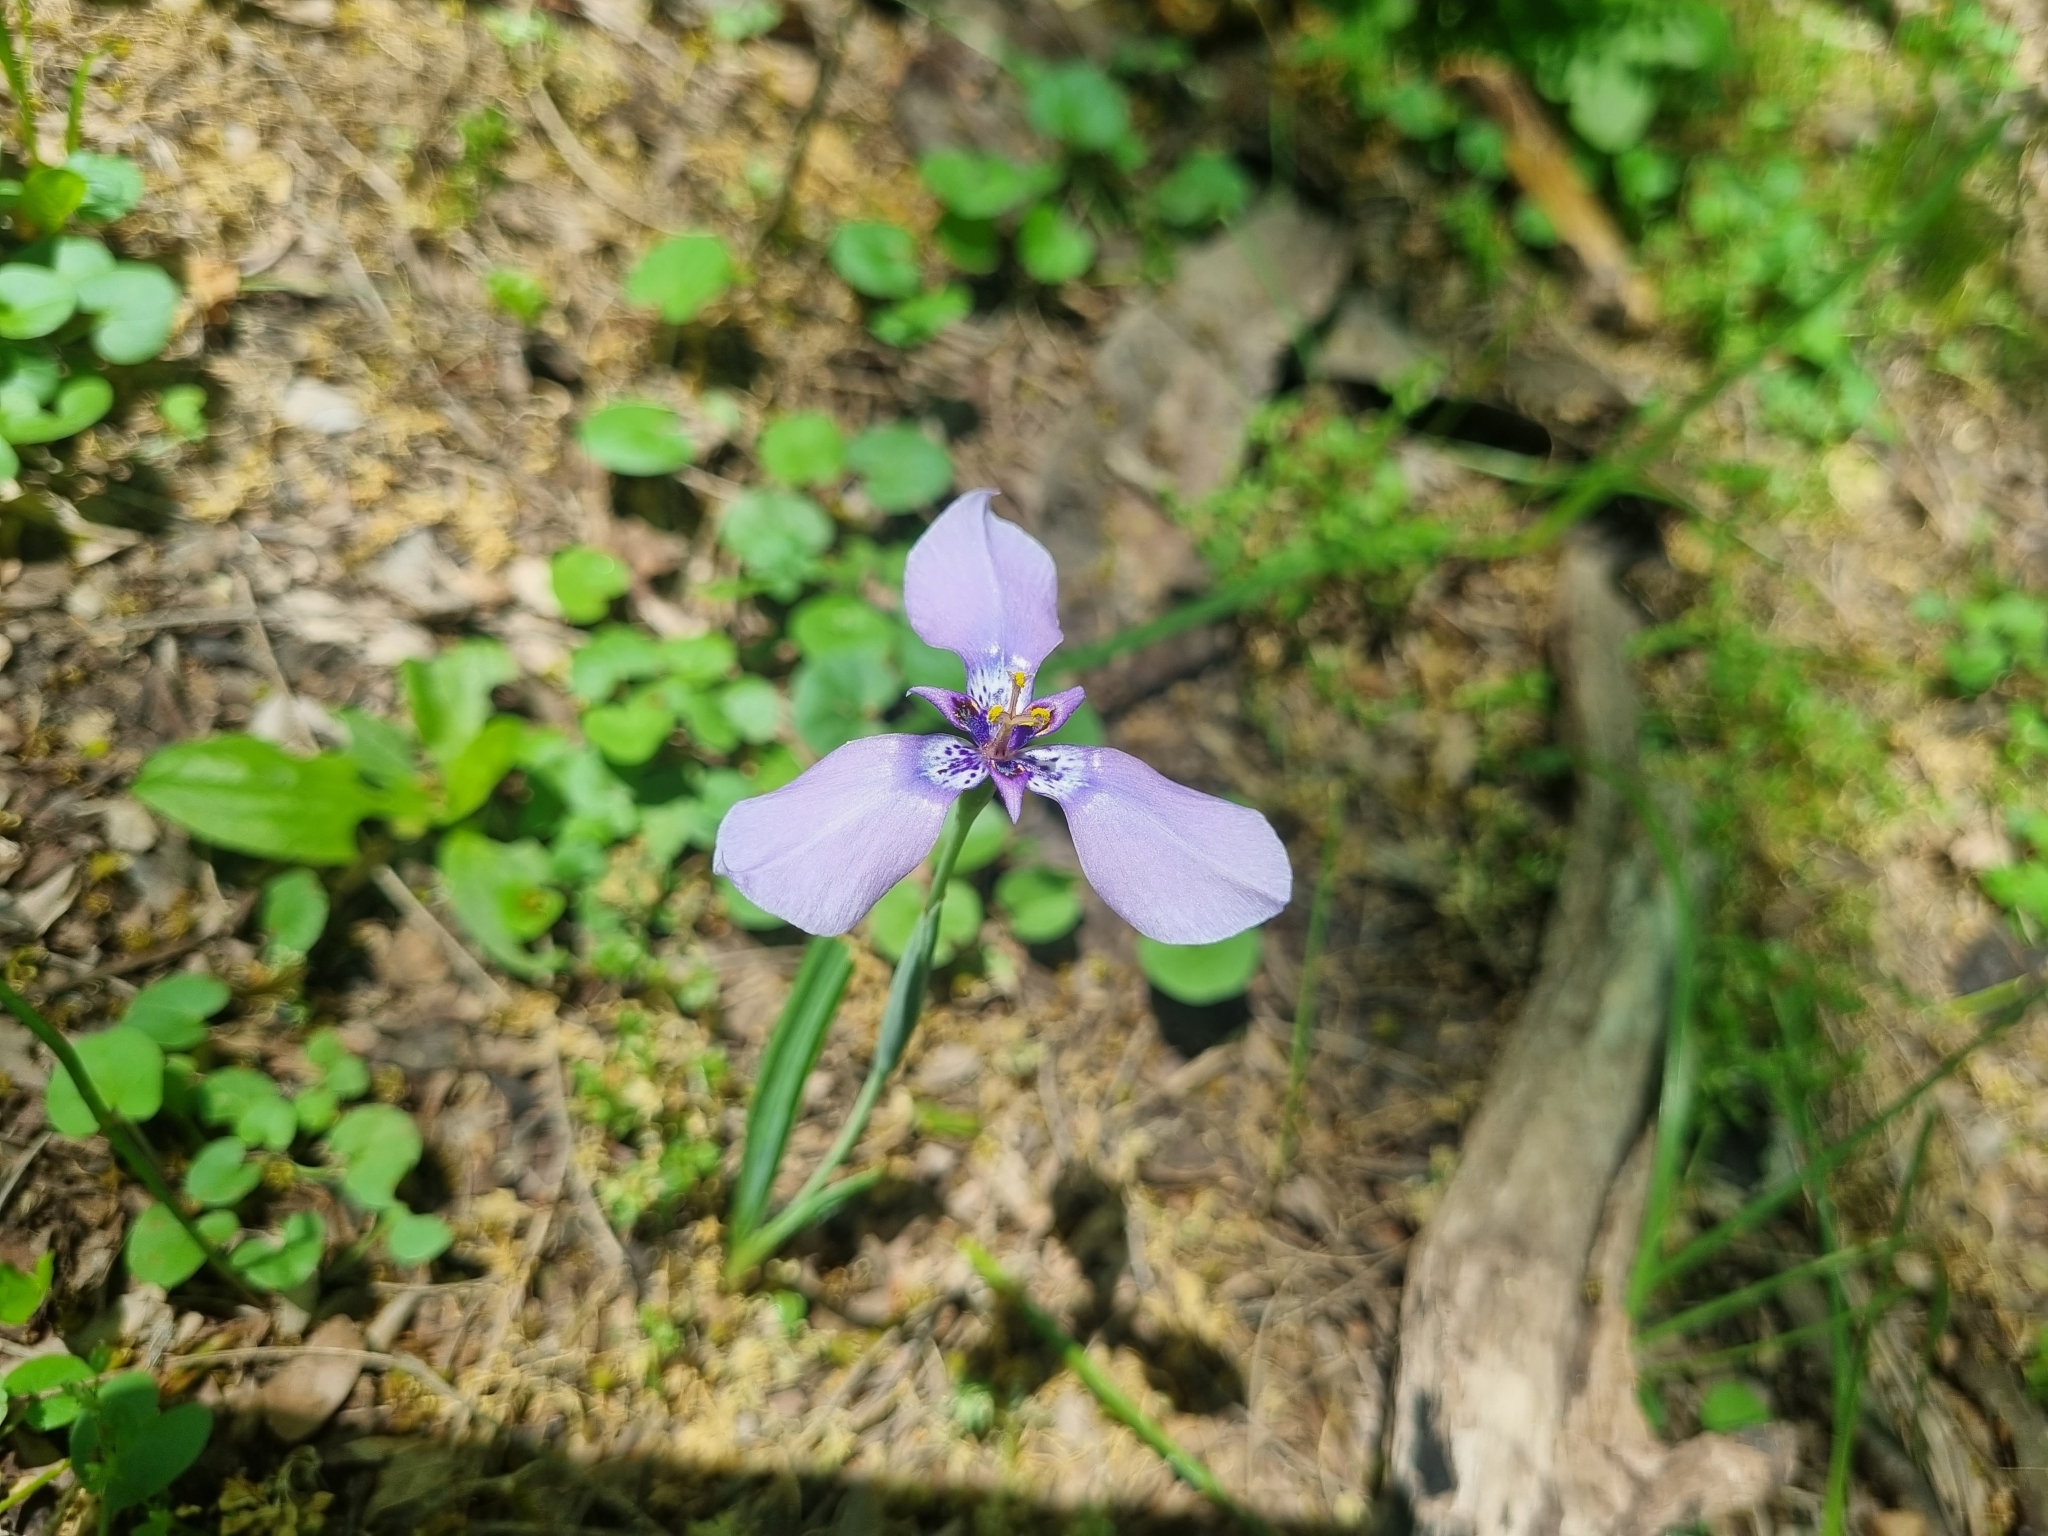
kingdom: Plantae
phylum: Tracheophyta
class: Liliopsida
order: Asparagales
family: Iridaceae
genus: Herbertia
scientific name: Herbertia lahue
